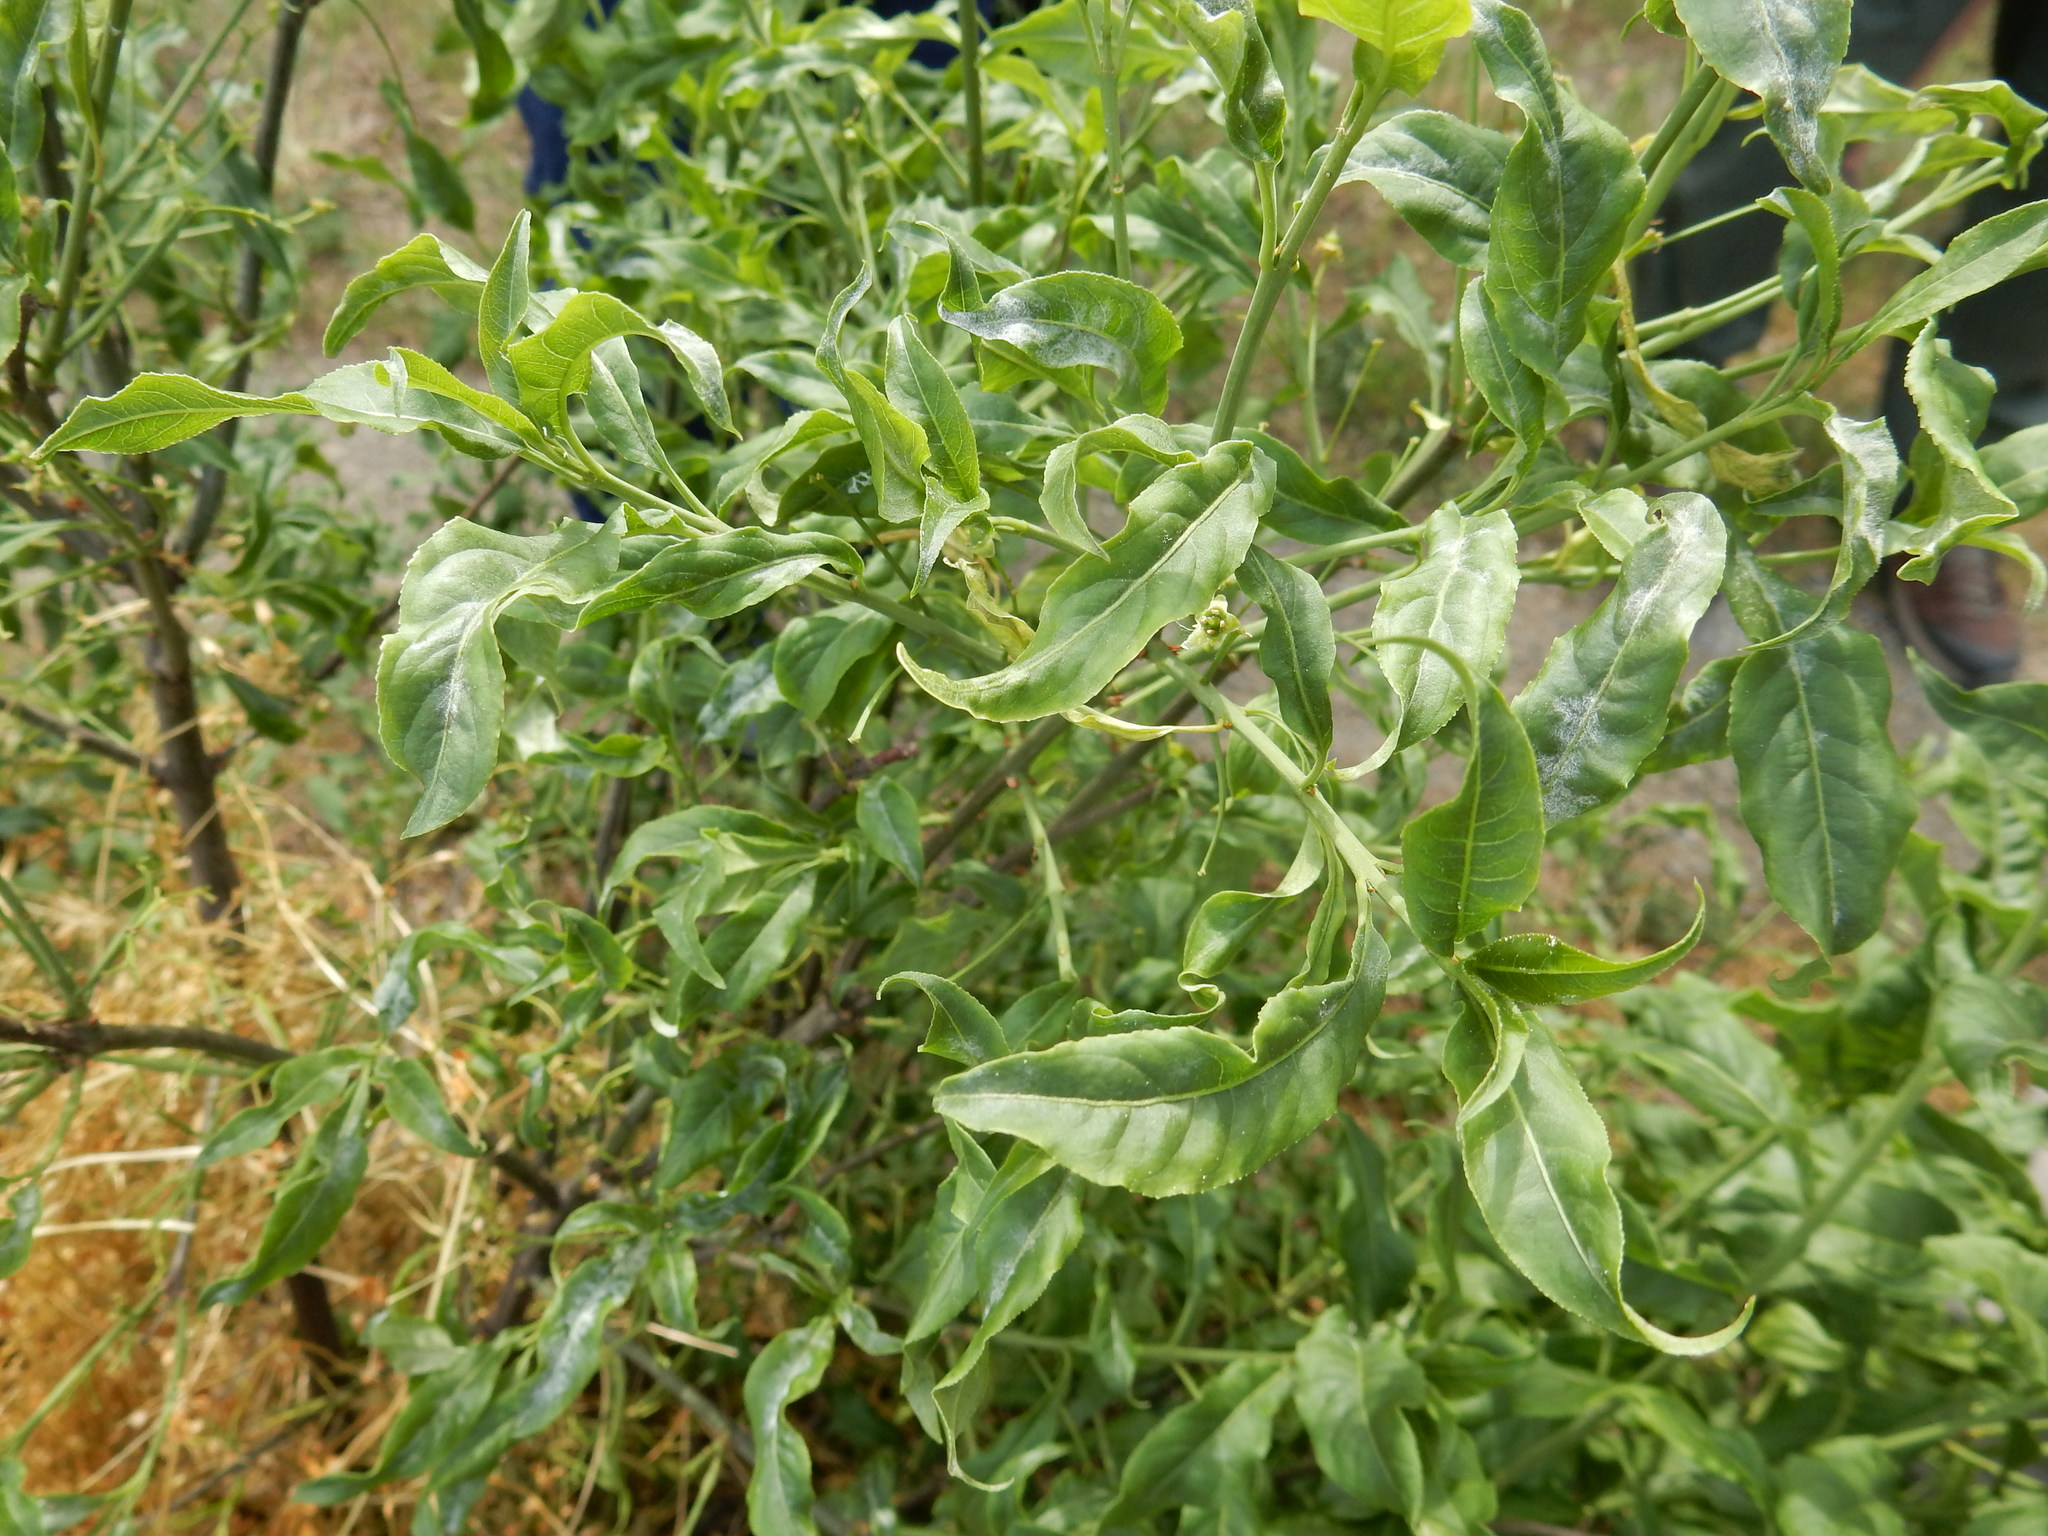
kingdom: Plantae
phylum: Tracheophyta
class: Magnoliopsida
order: Celastrales
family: Celastraceae
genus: Euonymus
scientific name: Euonymus europaeus
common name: Spindle
